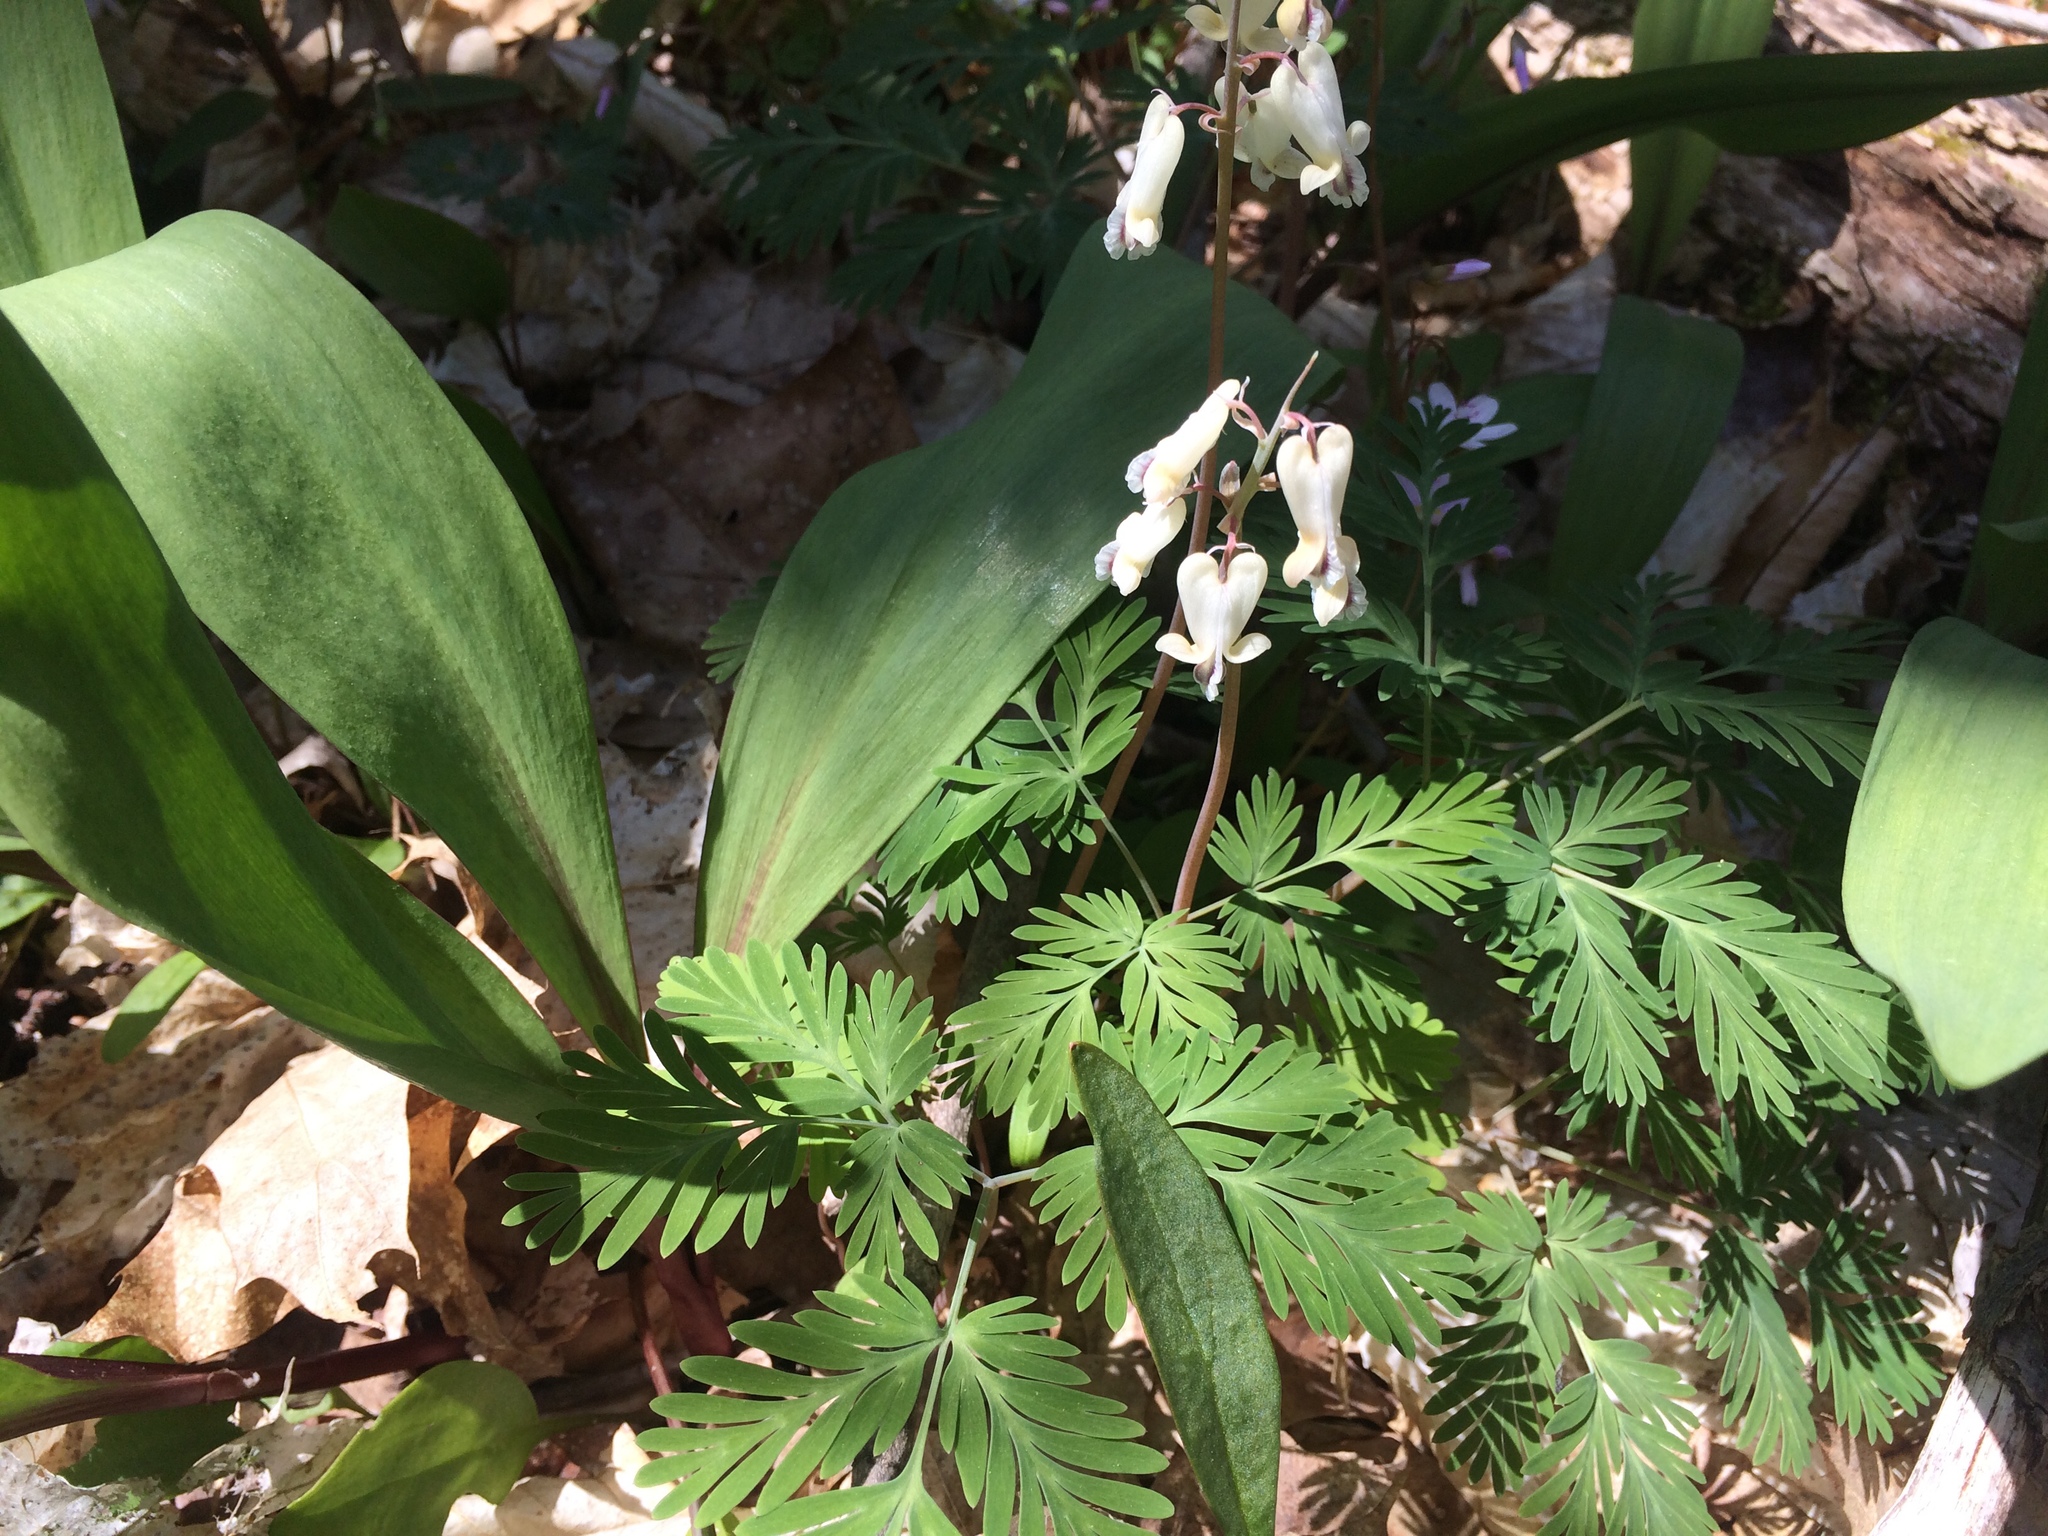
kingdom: Plantae
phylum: Tracheophyta
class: Magnoliopsida
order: Ranunculales
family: Papaveraceae
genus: Dicentra
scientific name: Dicentra canadensis
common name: Squirrel-corn
